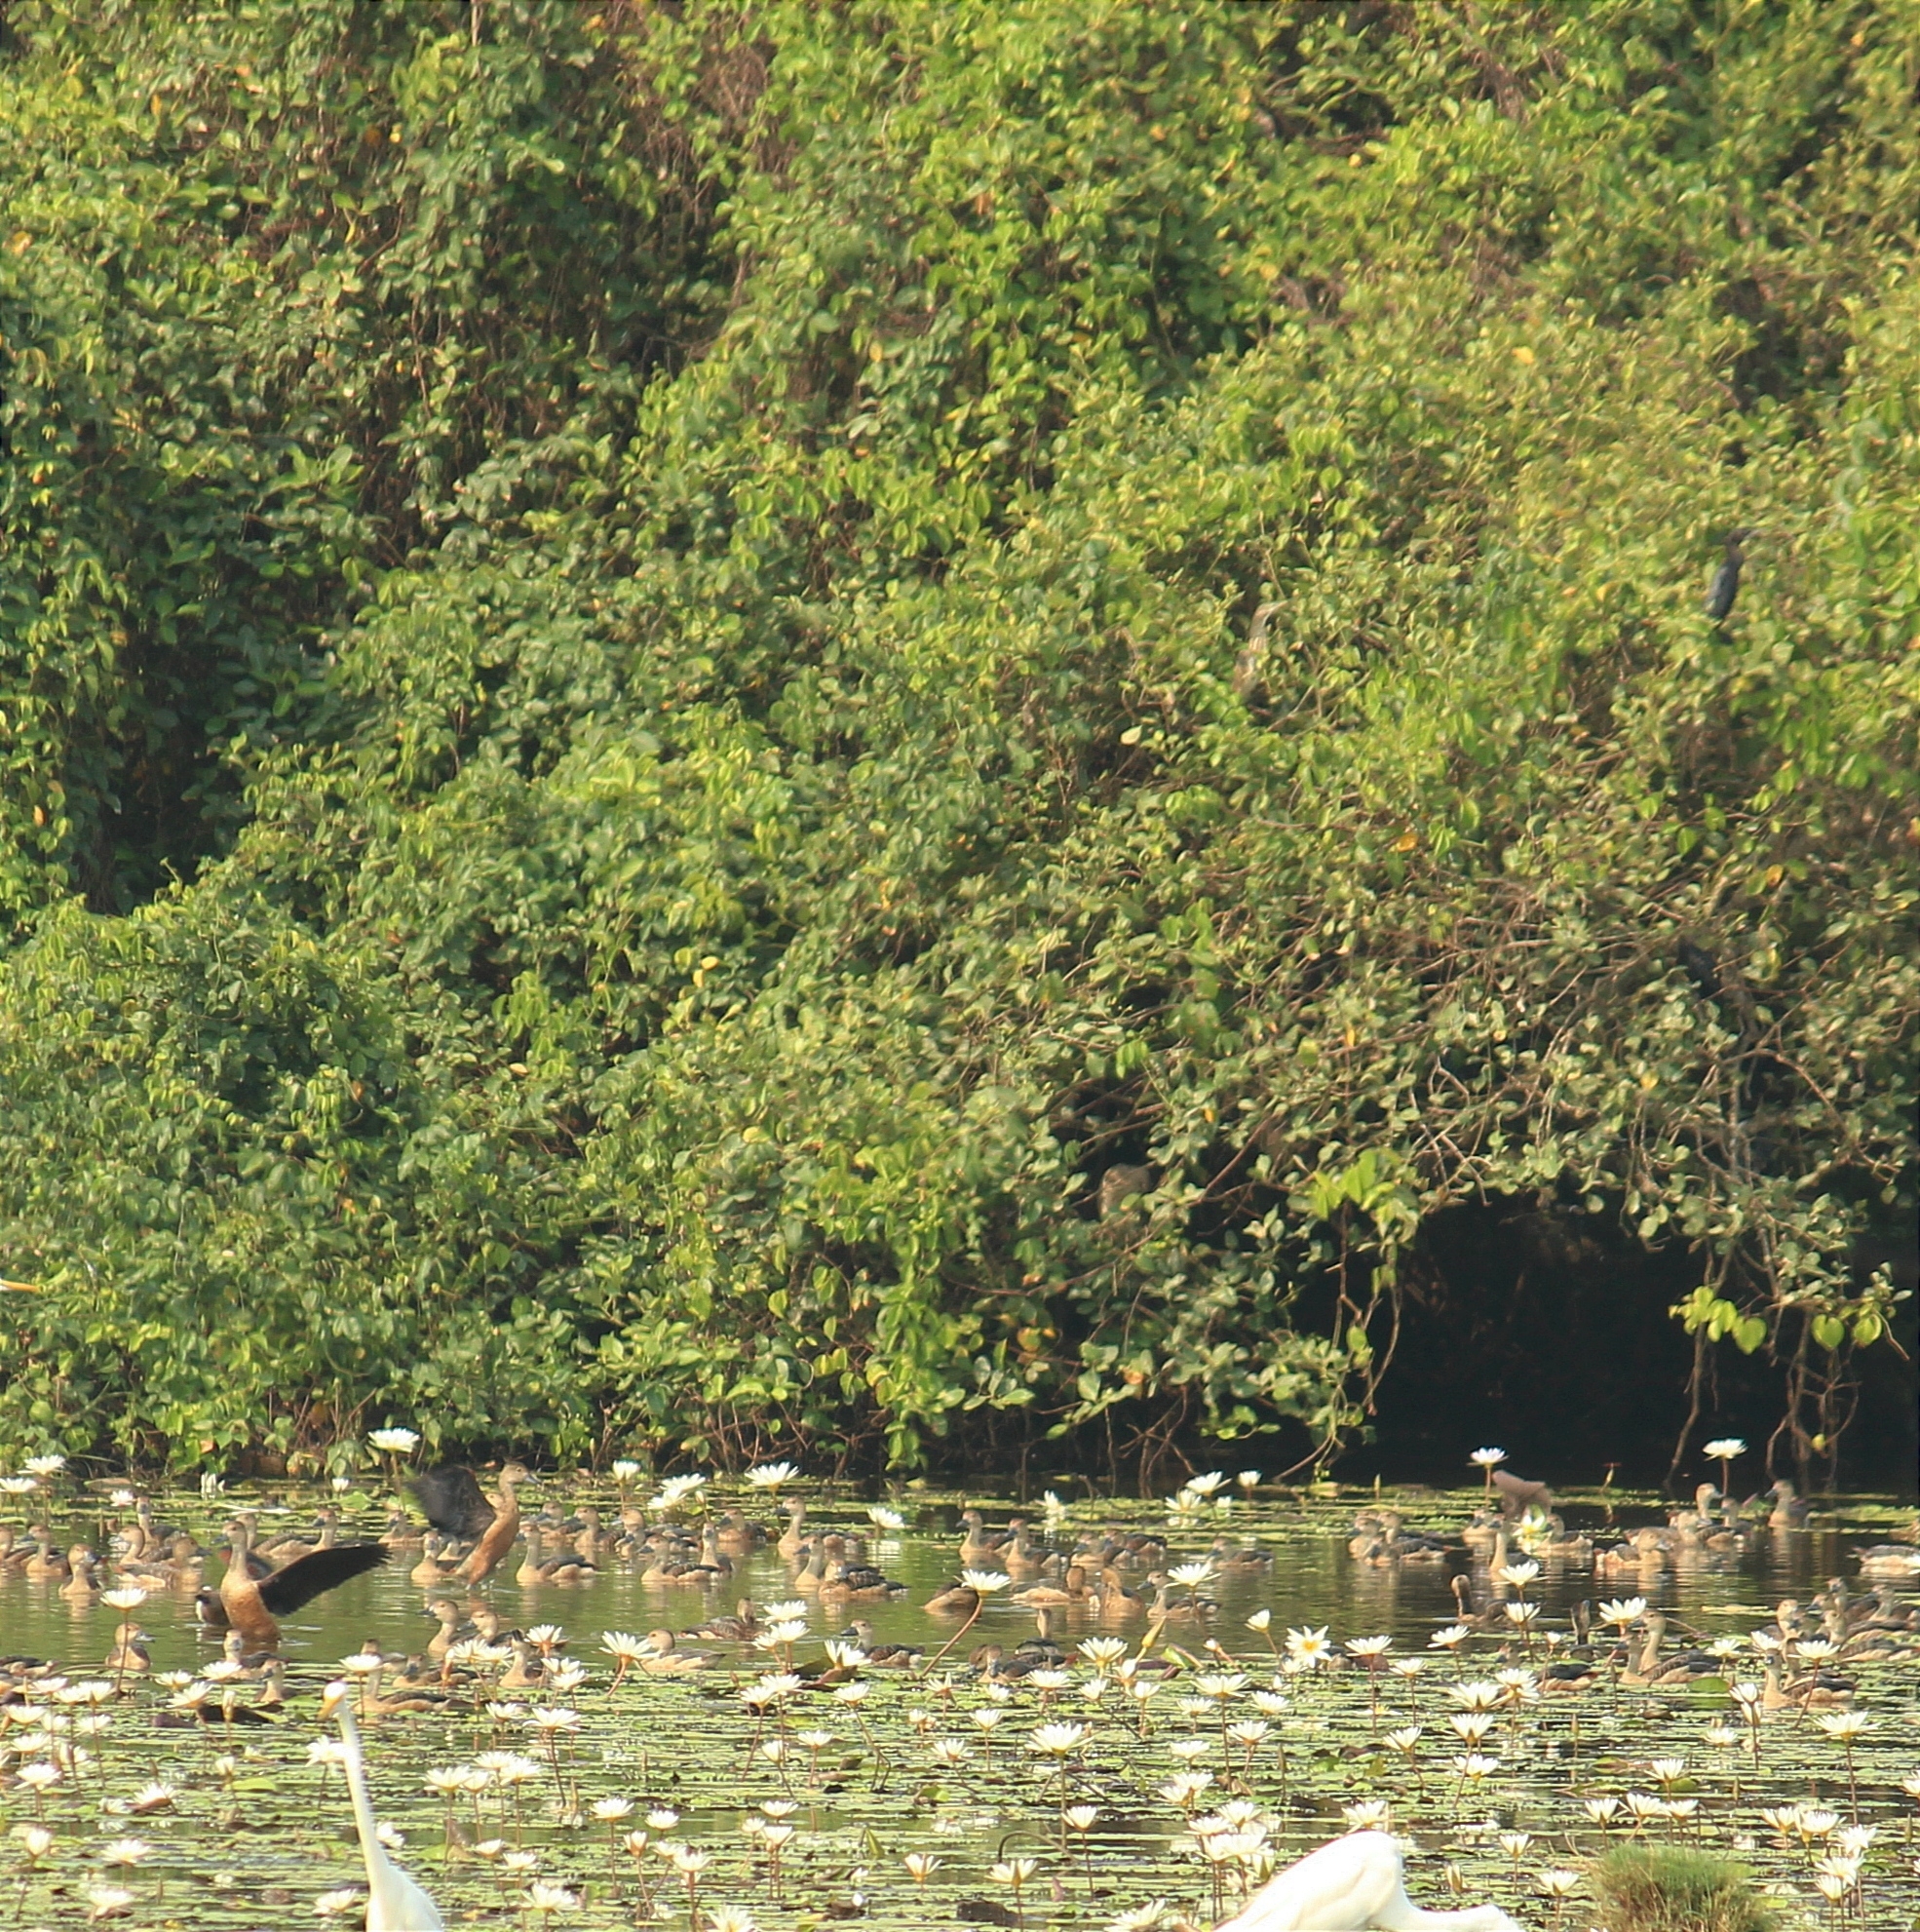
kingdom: Animalia
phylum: Chordata
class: Aves
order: Anseriformes
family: Anatidae
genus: Dendrocygna
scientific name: Dendrocygna javanica
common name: Lesser whistling-duck
